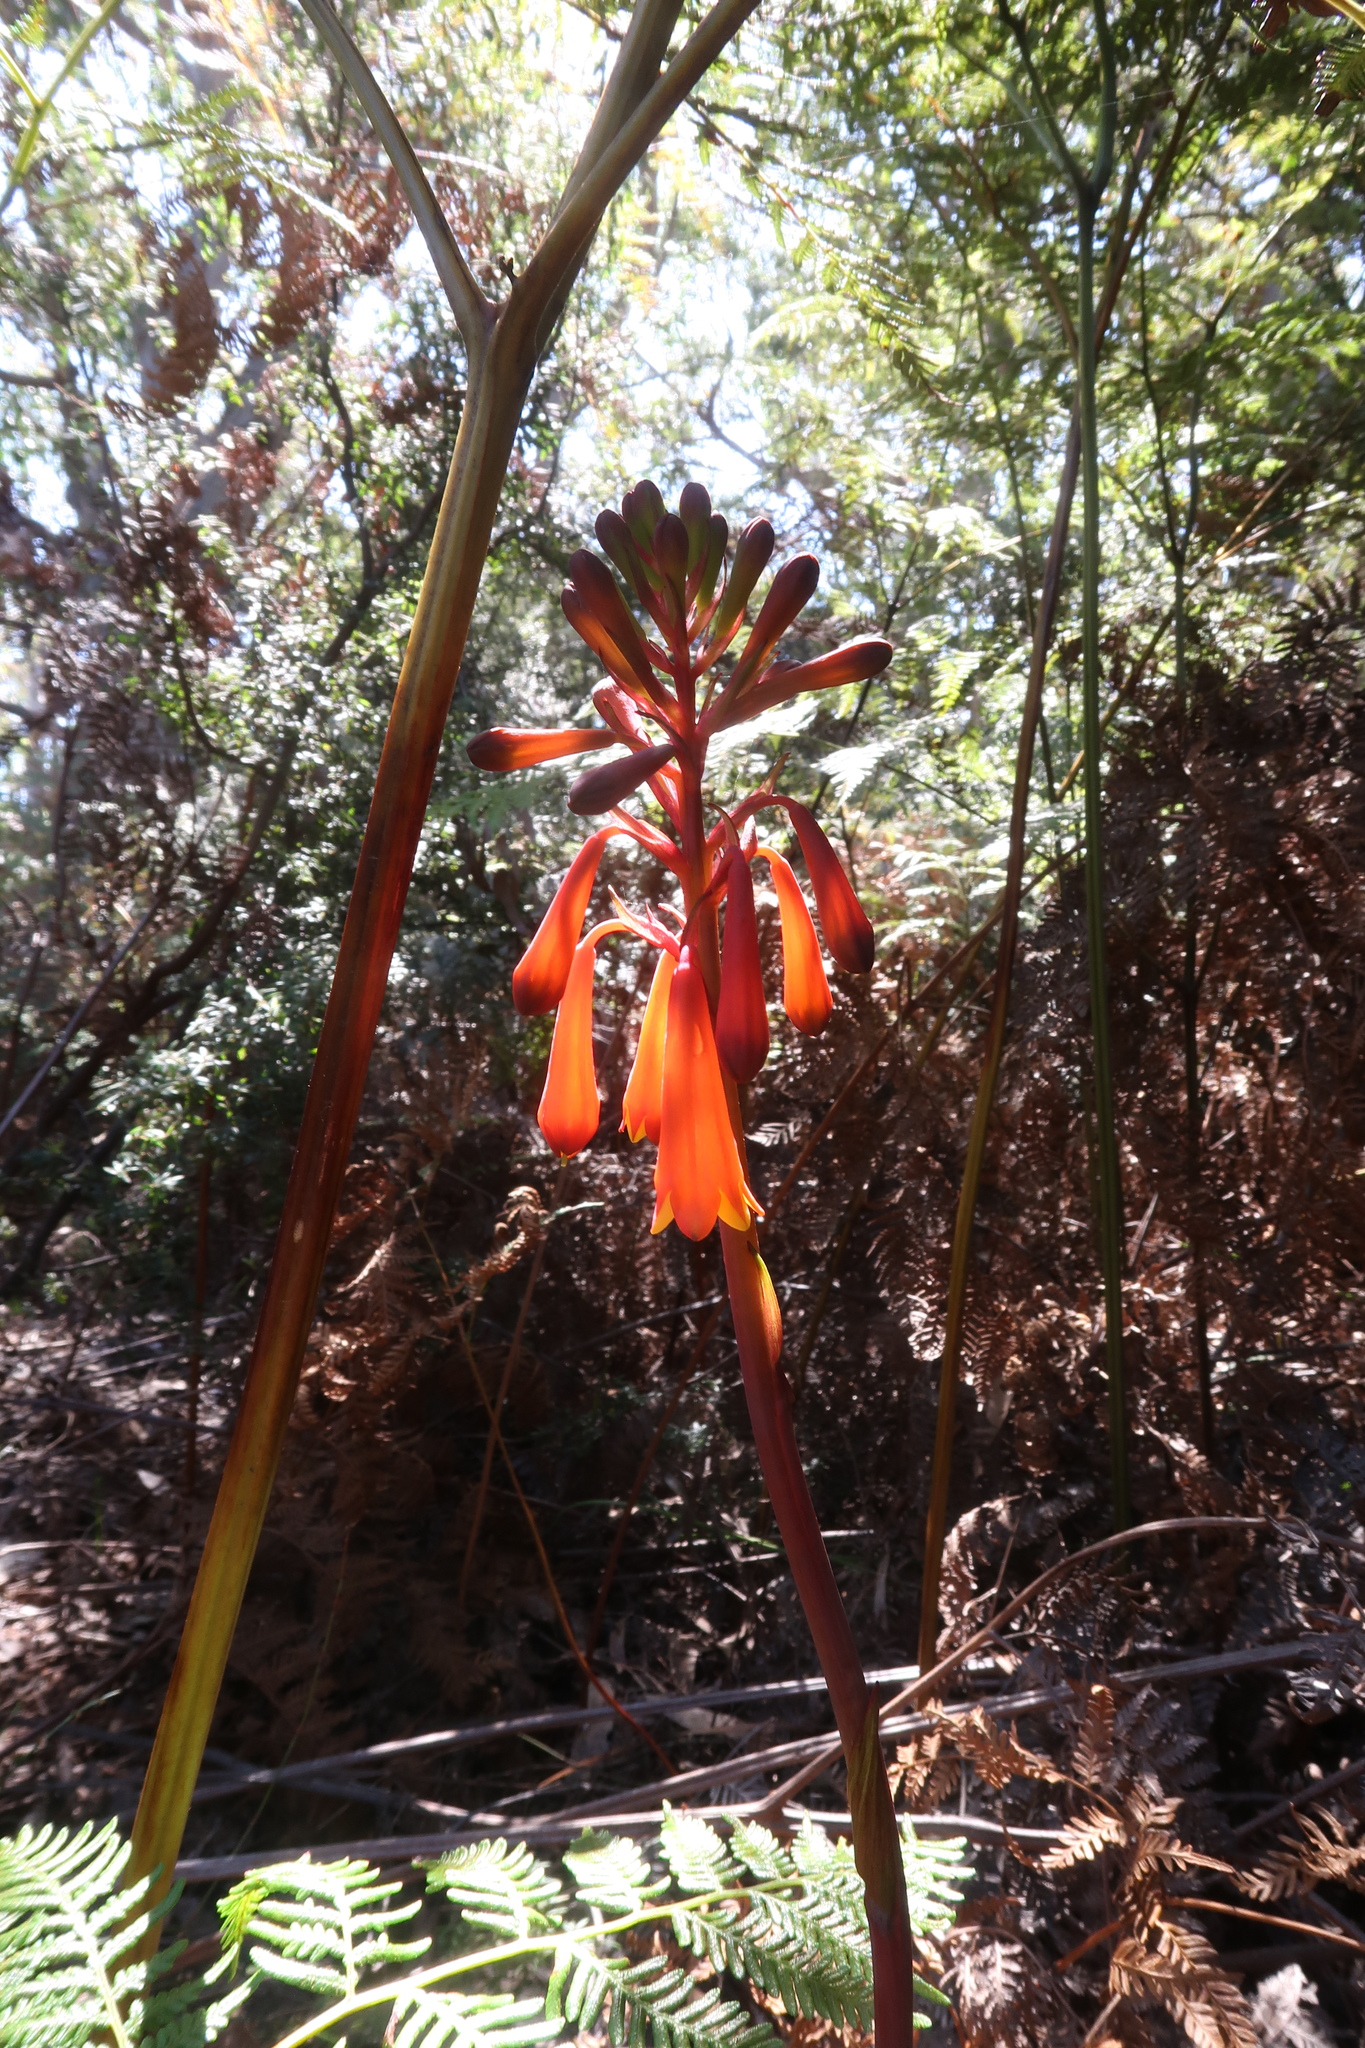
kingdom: Plantae
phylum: Tracheophyta
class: Liliopsida
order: Asparagales
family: Blandfordiaceae
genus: Blandfordia
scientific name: Blandfordia punicea
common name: Tasmanian christmas-bell
